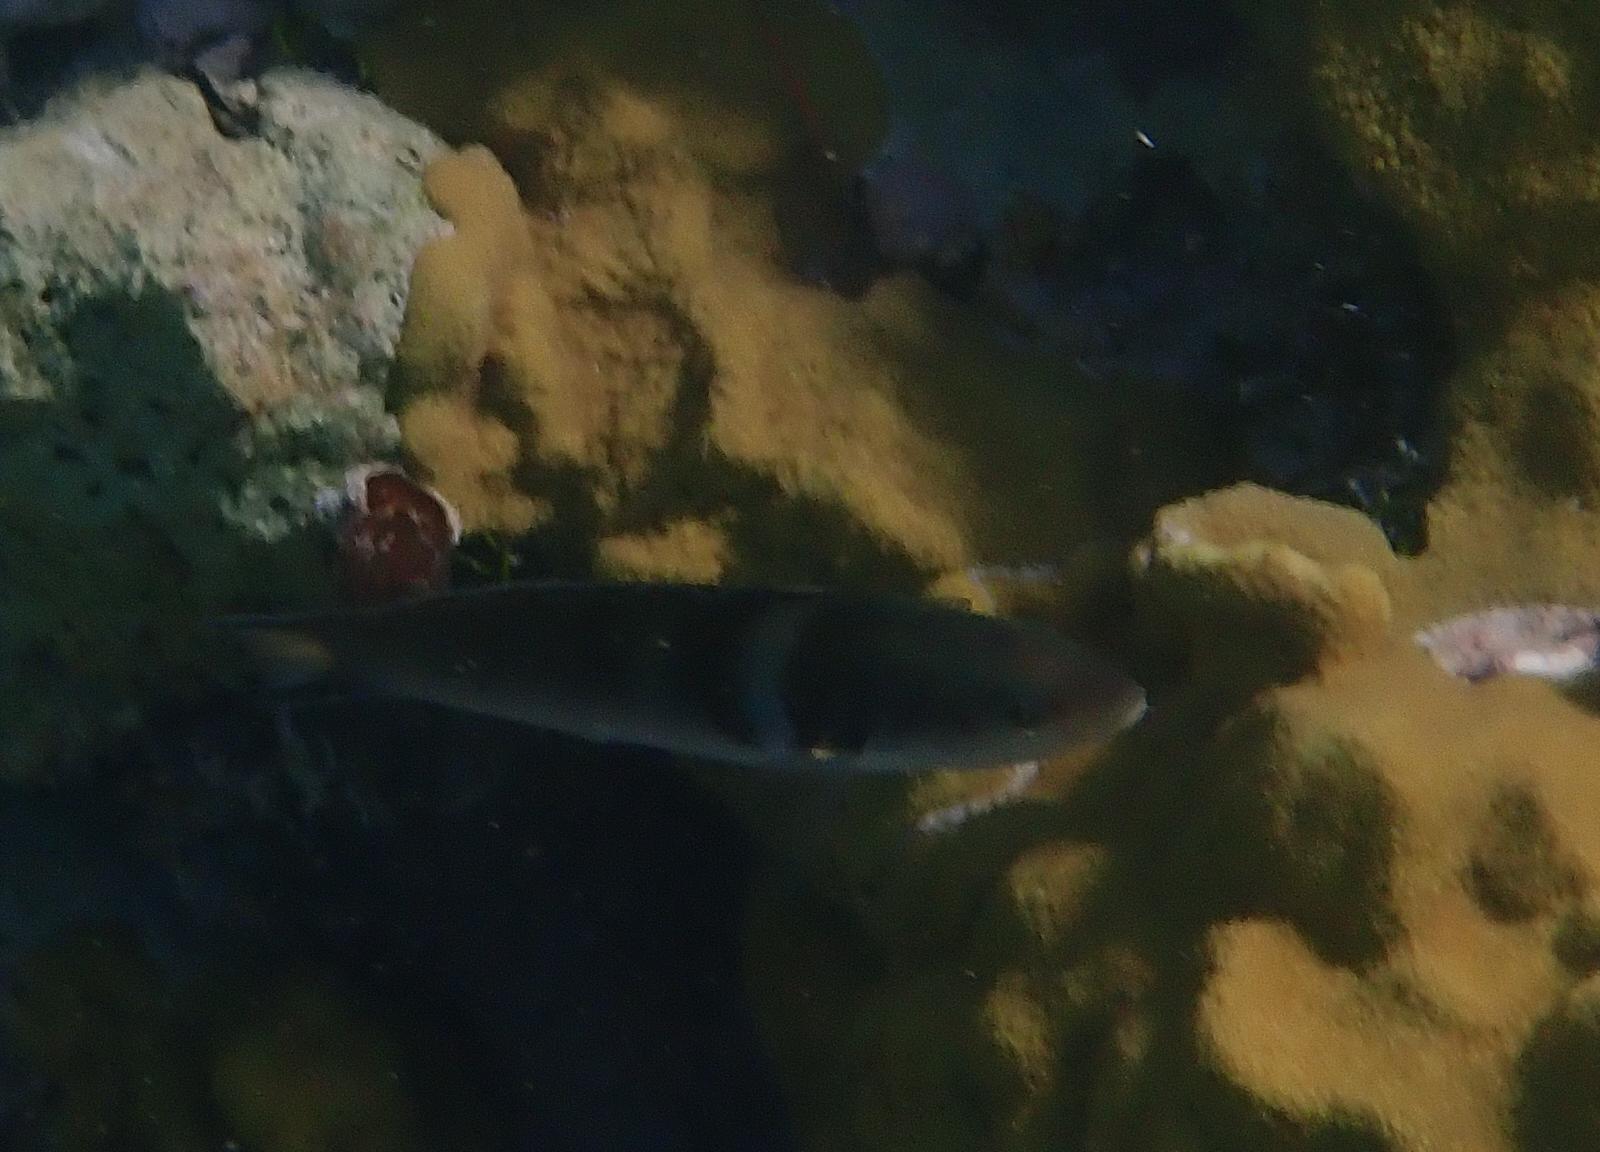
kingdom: Animalia
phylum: Chordata
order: Perciformes
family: Labridae
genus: Thalassoma
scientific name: Thalassoma bifasciatum
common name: Bluehead wrasse
